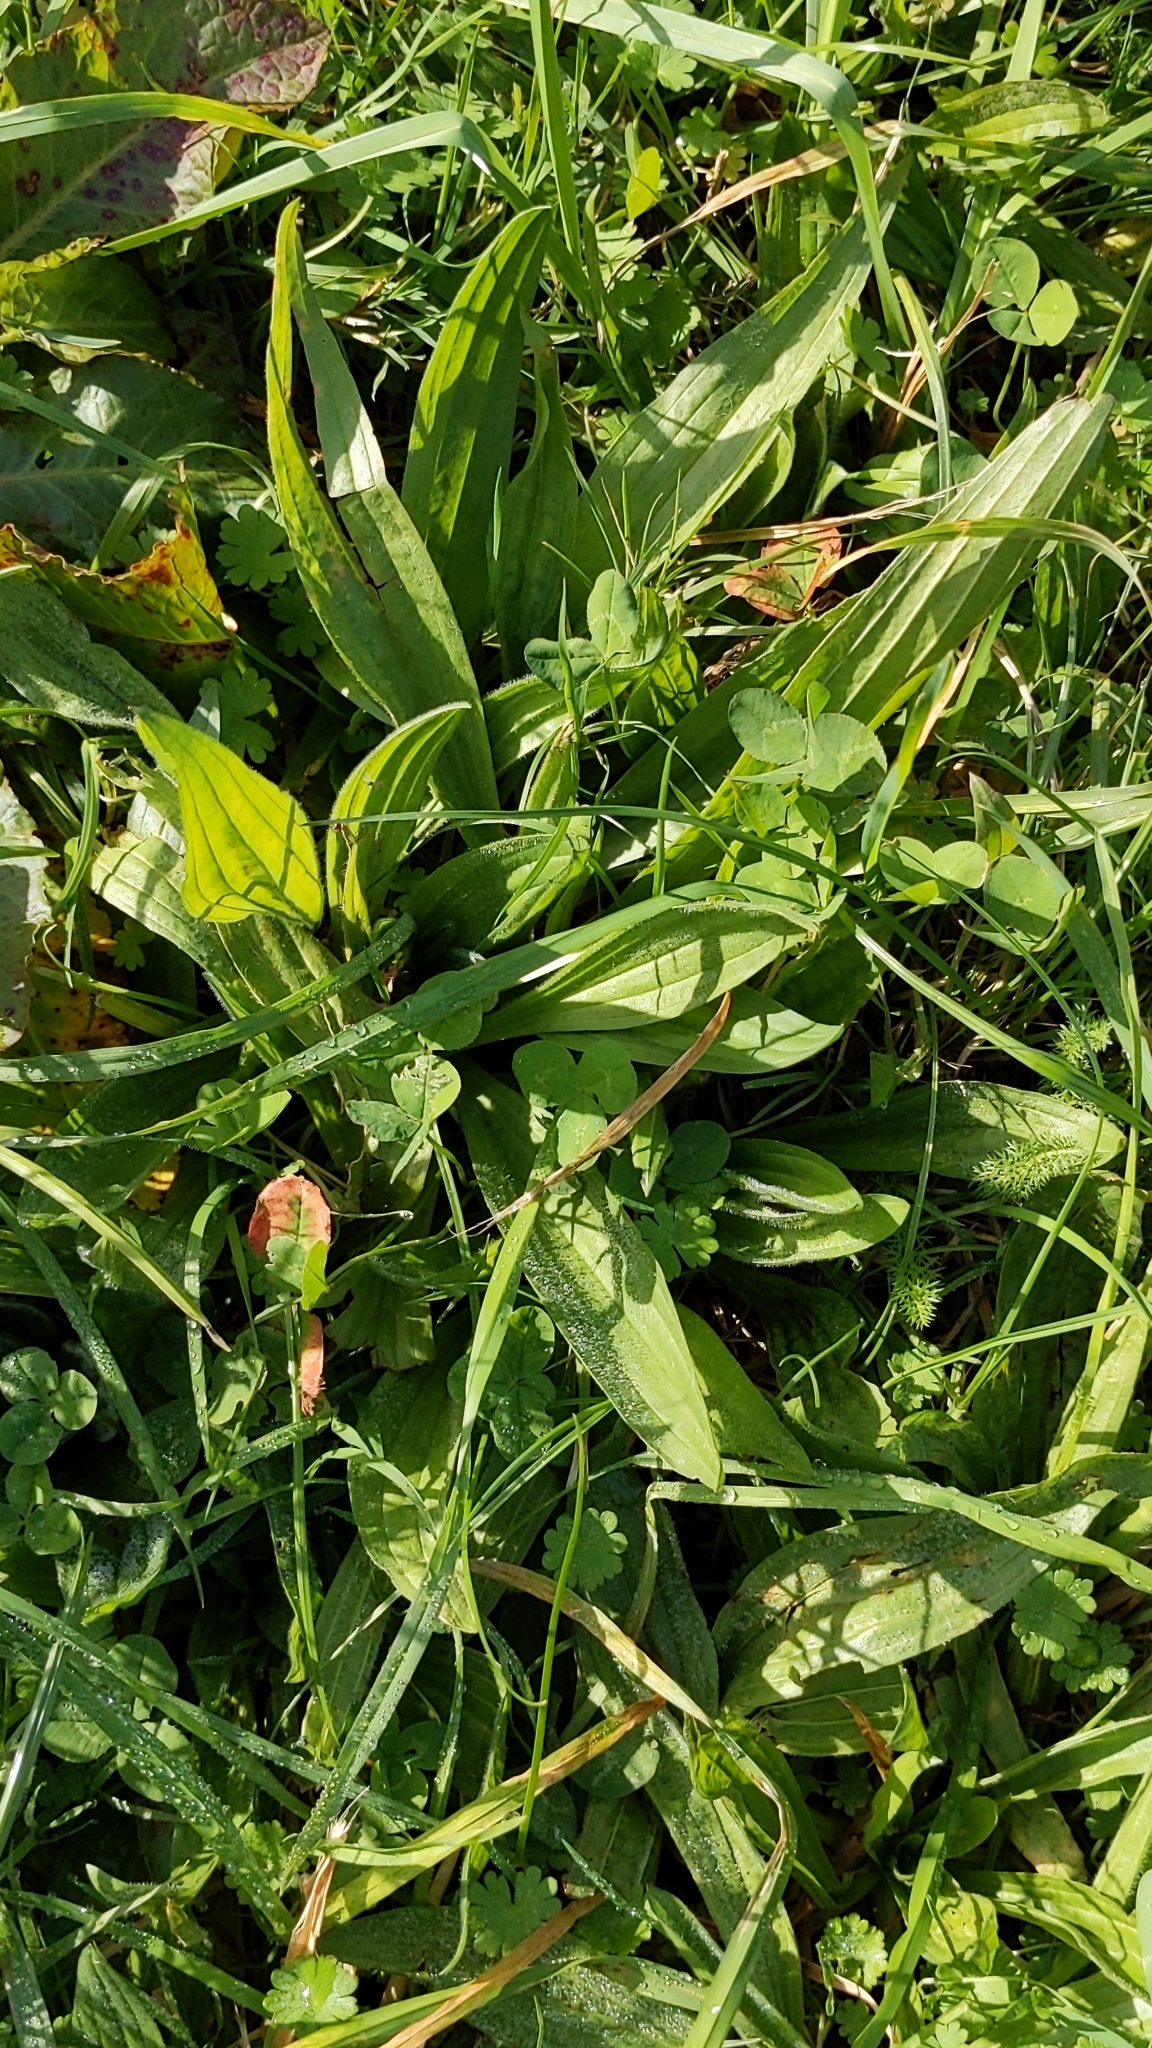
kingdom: Plantae
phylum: Tracheophyta
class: Magnoliopsida
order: Lamiales
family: Plantaginaceae
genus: Plantago
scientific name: Plantago lanceolata
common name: Ribwort plantain
